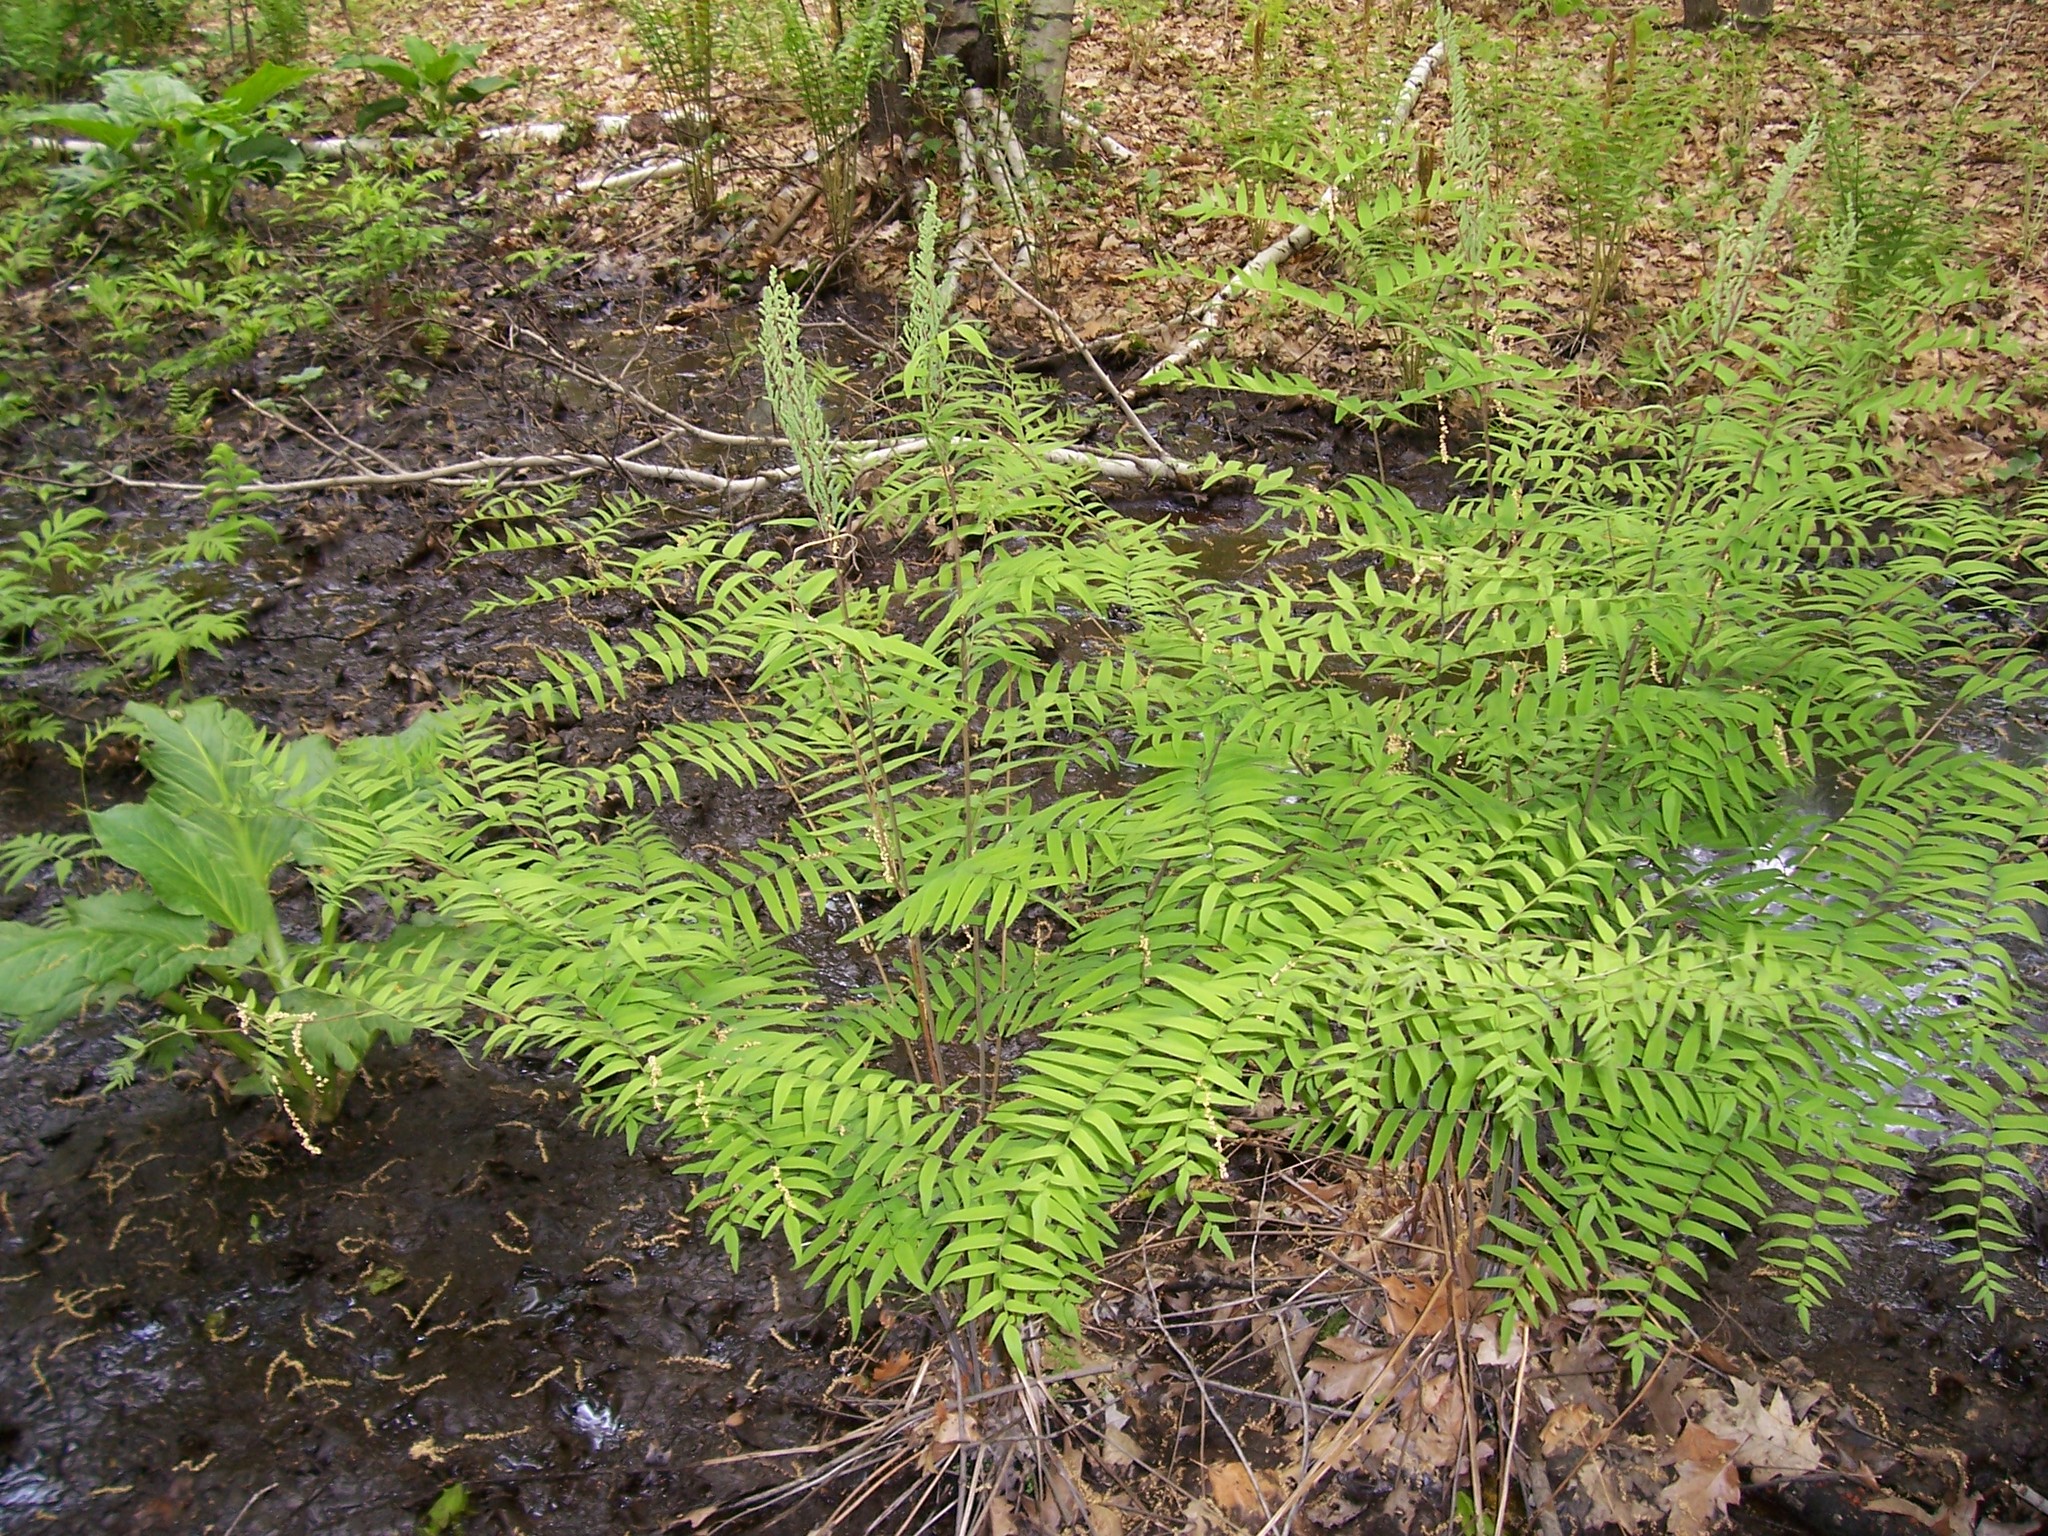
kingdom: Plantae
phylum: Tracheophyta
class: Polypodiopsida
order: Osmundales
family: Osmundaceae
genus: Osmunda
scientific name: Osmunda spectabilis
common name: American royal fern
